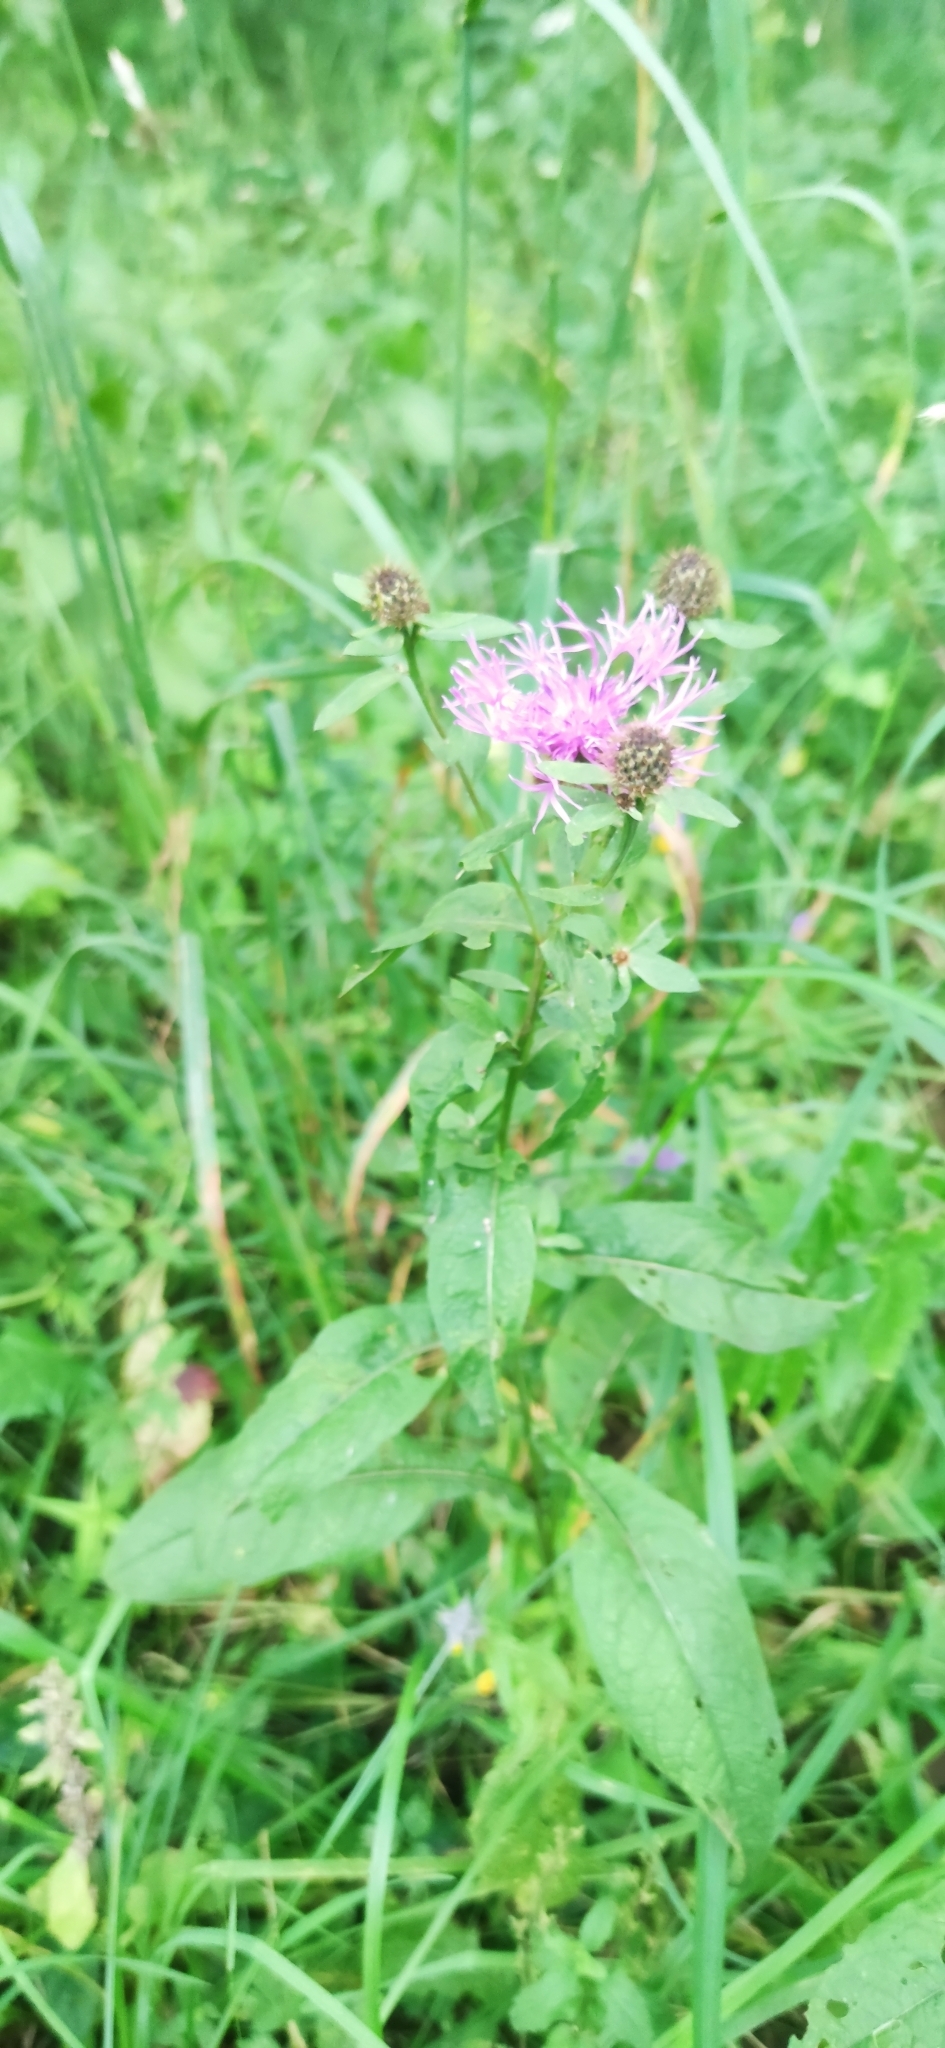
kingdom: Plantae
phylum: Tracheophyta
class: Magnoliopsida
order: Asterales
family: Asteraceae
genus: Centaurea
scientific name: Centaurea phrygia
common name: Wig knapweed
